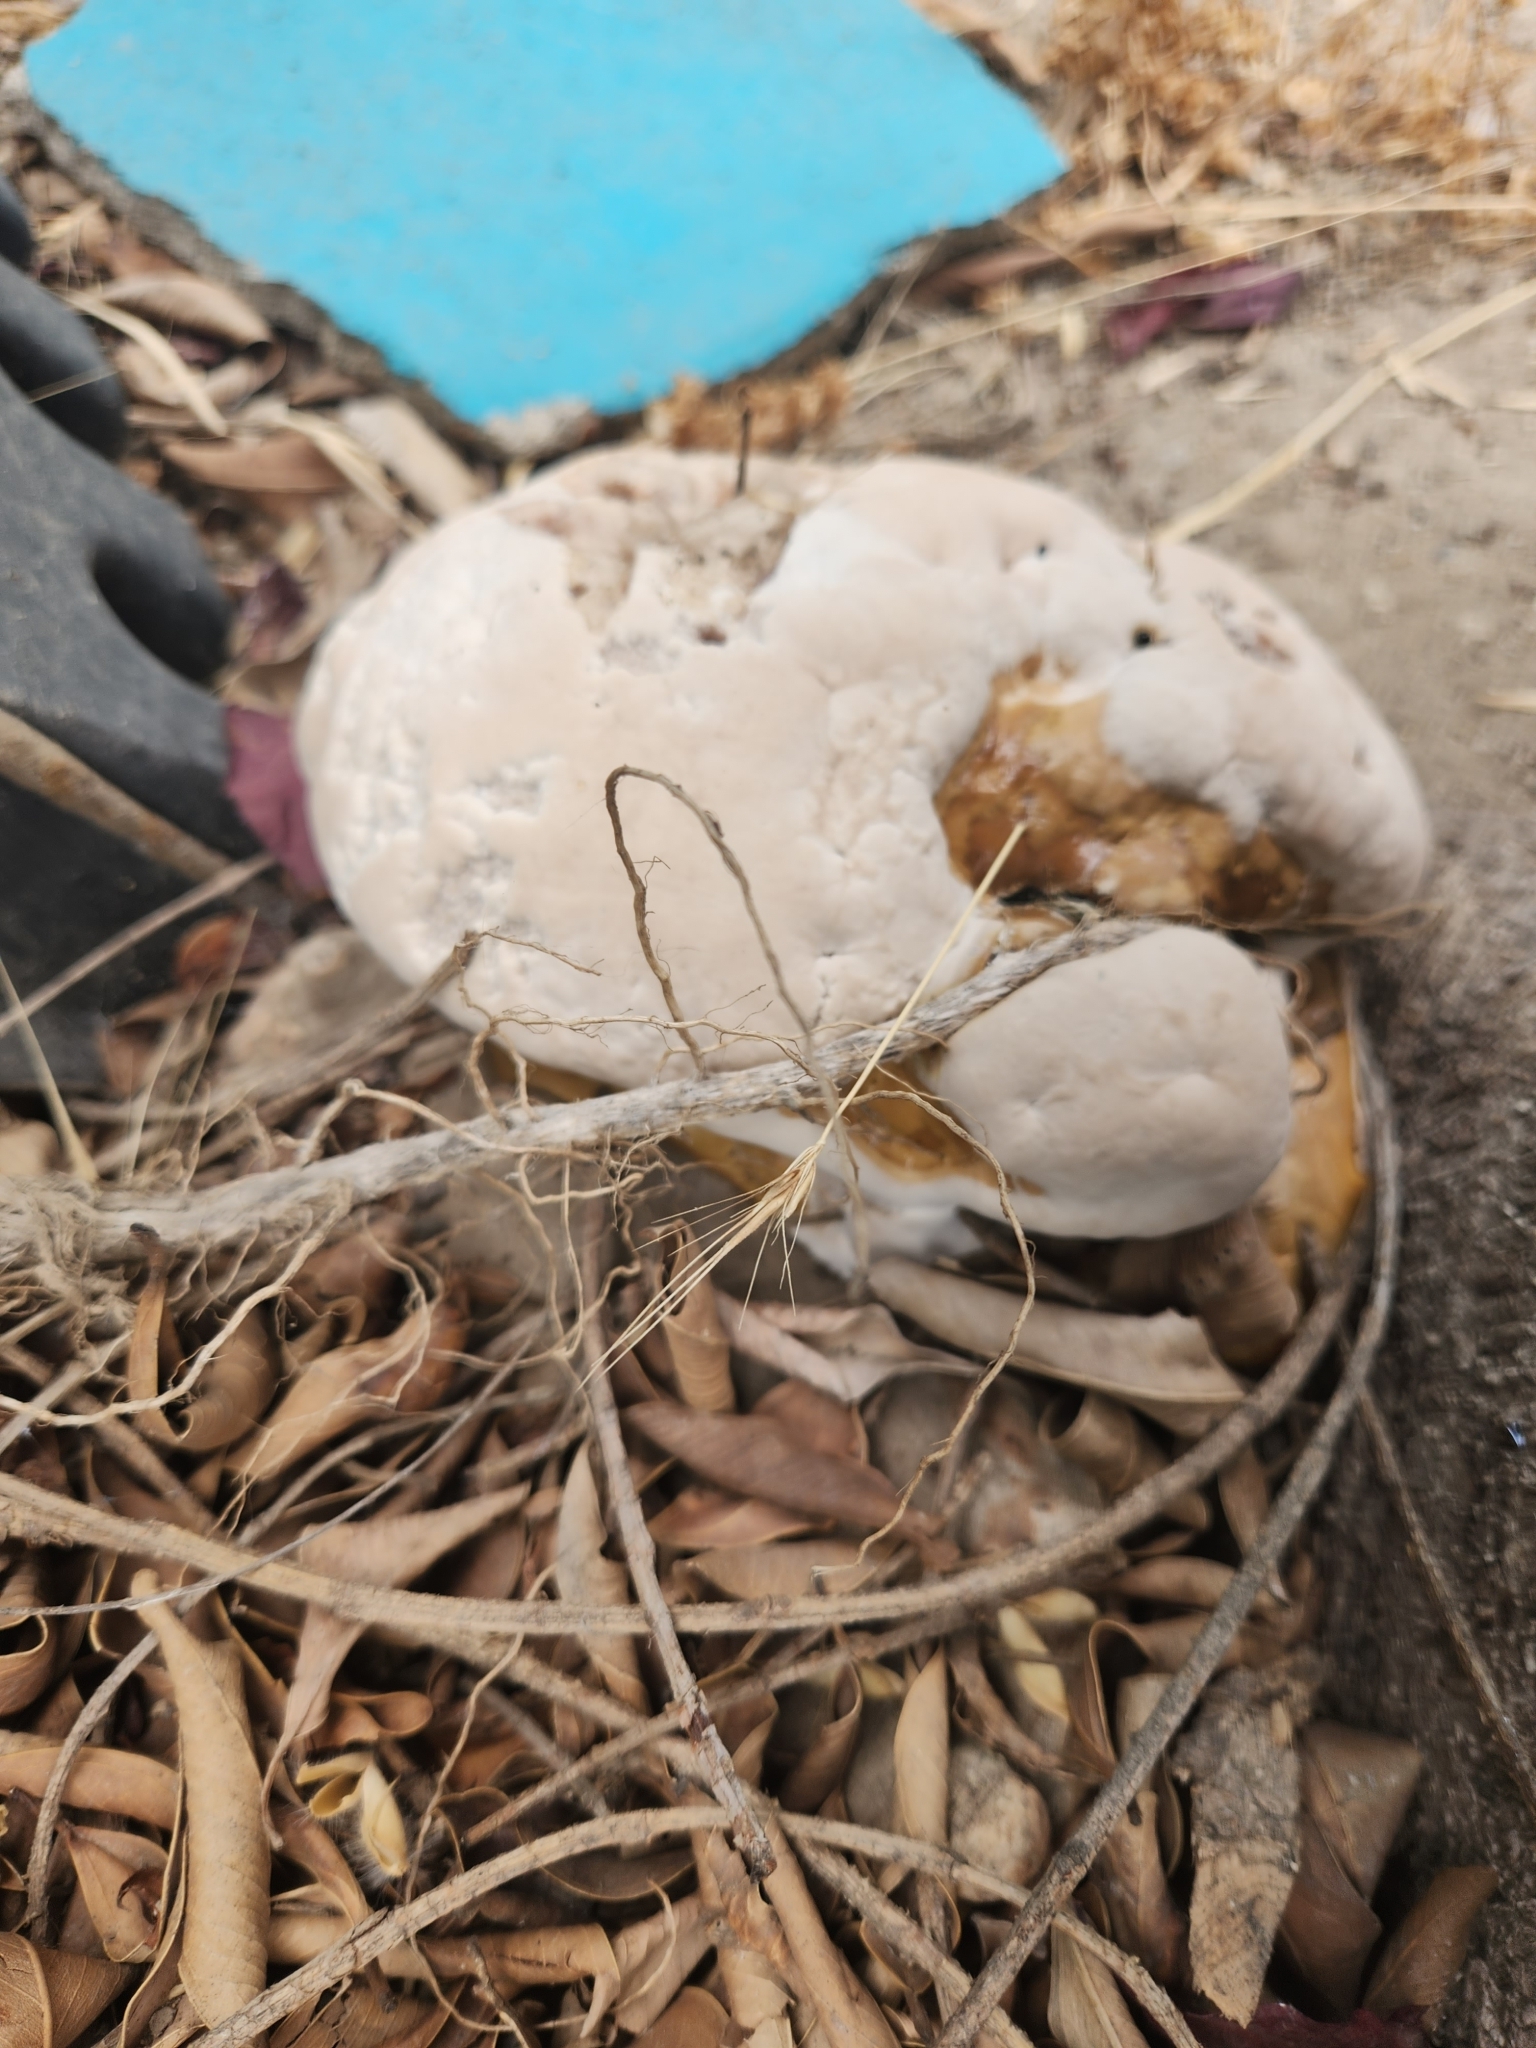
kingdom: Fungi
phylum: Basidiomycota
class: Agaricomycetes
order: Polyporales
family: Polyporaceae
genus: Ganoderma
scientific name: Ganoderma polychromum
